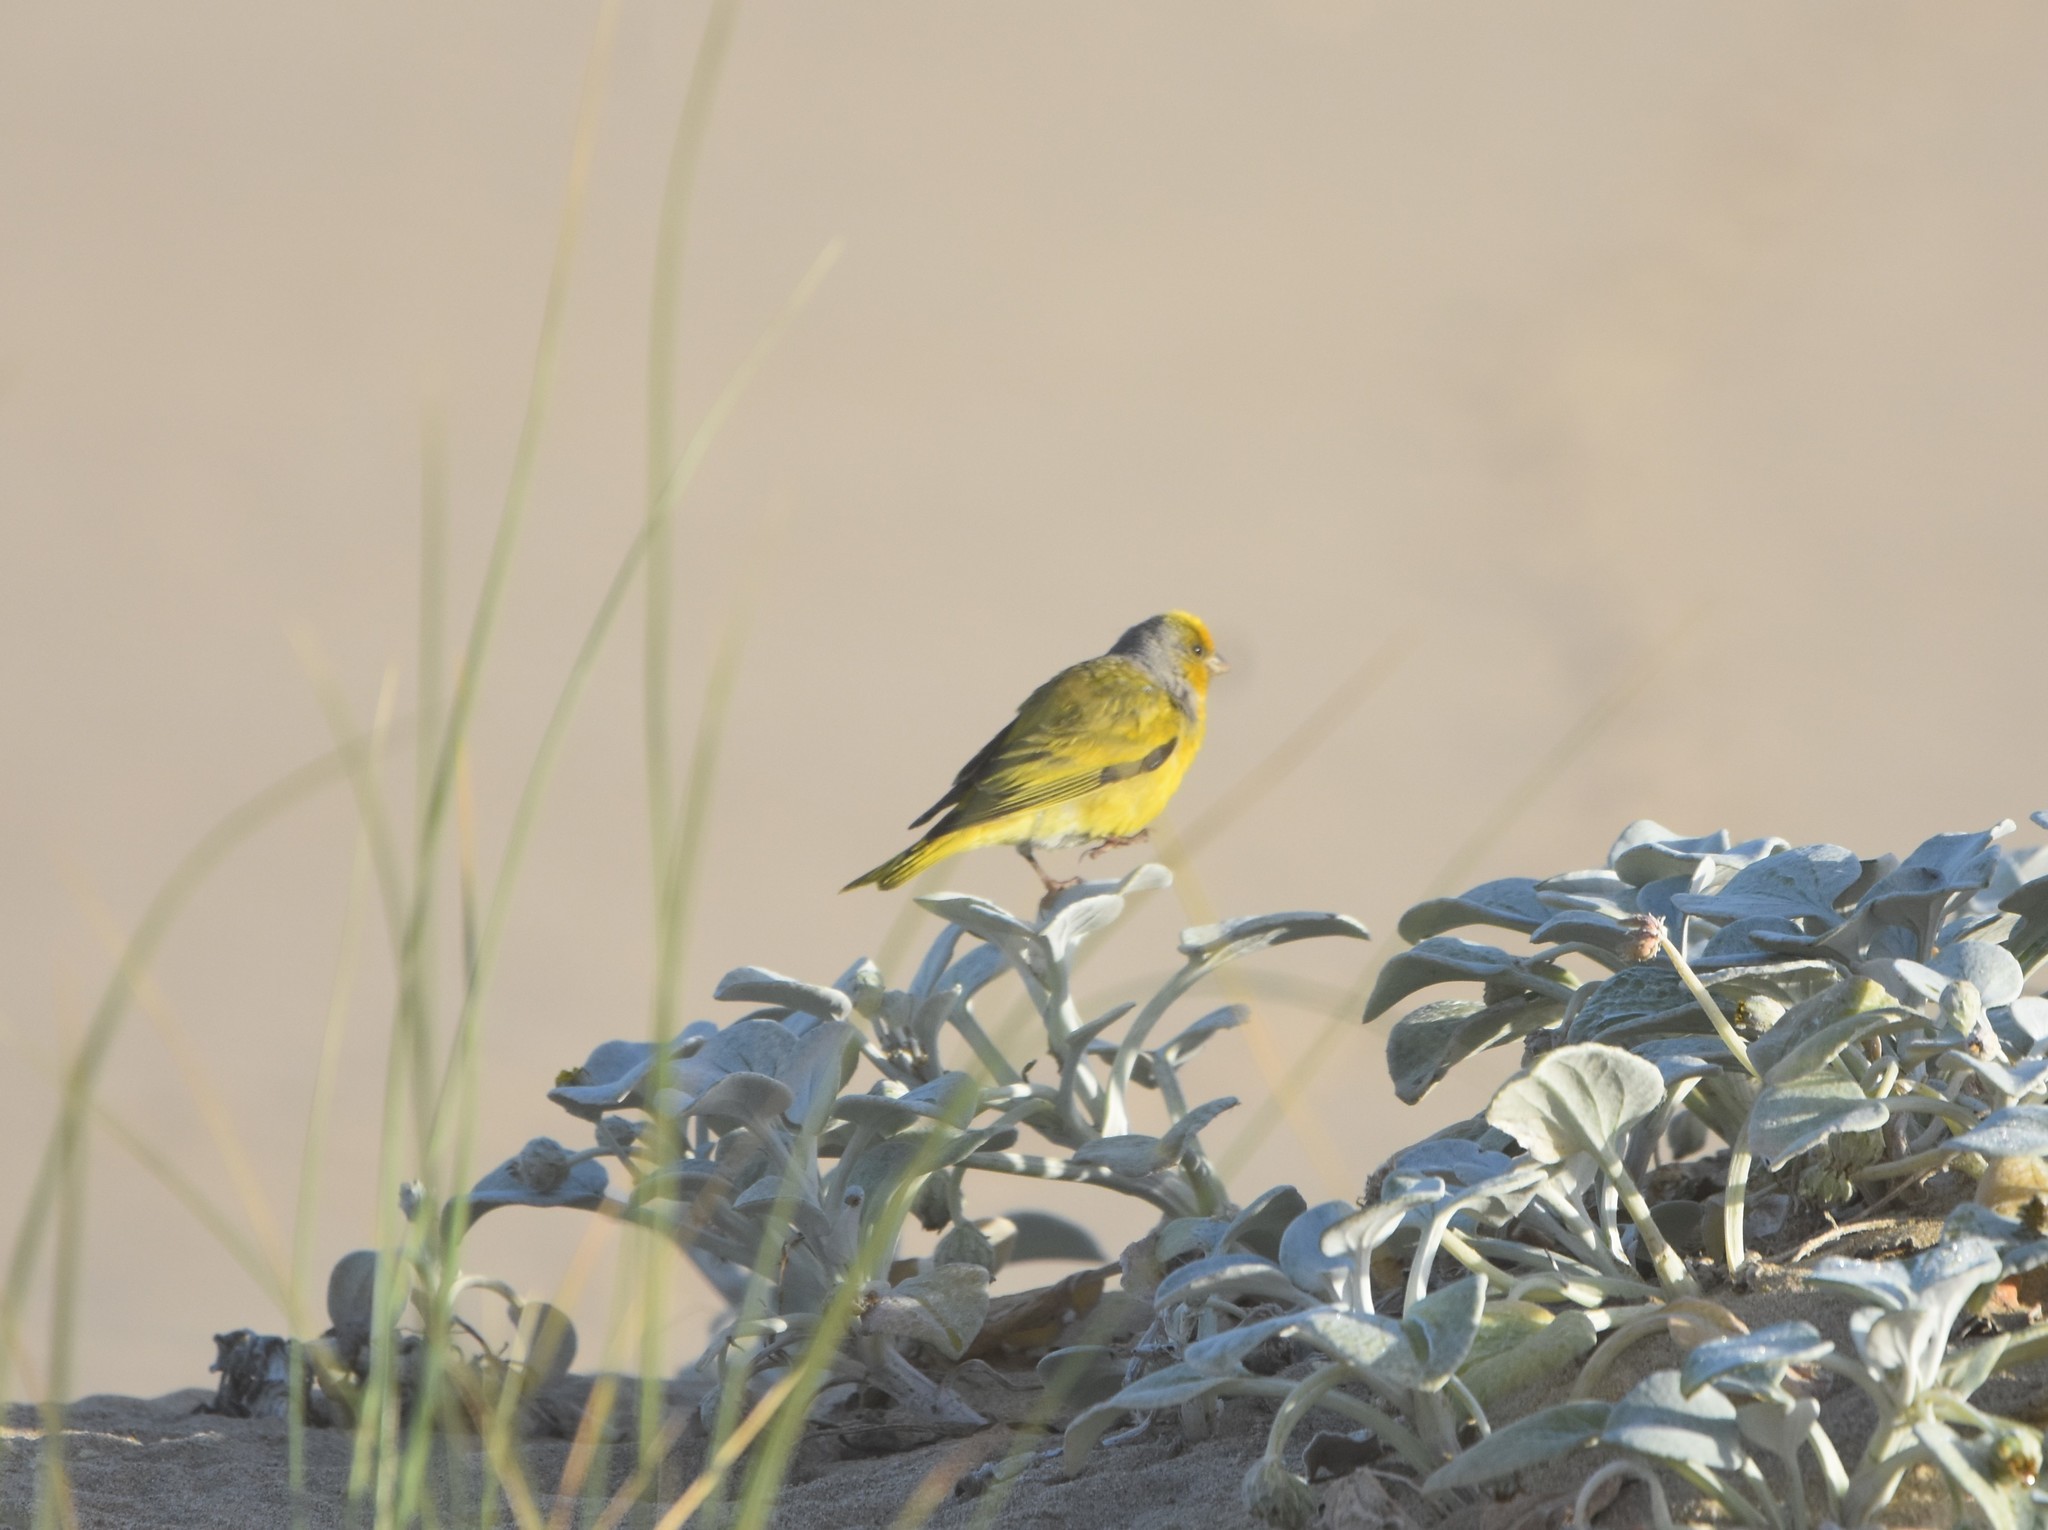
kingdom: Animalia
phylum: Chordata
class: Aves
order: Passeriformes
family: Fringillidae
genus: Serinus
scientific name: Serinus canicollis
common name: Cape canary
